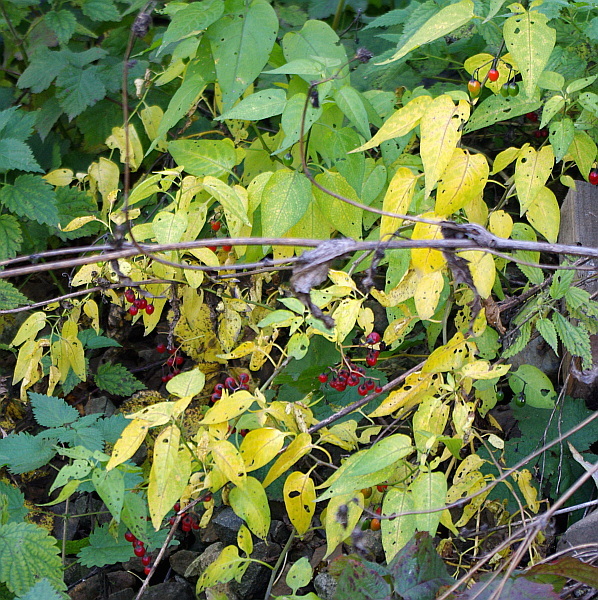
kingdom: Plantae
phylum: Tracheophyta
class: Magnoliopsida
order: Solanales
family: Solanaceae
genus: Solanum
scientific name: Solanum dulcamara
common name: Climbing nightshade
